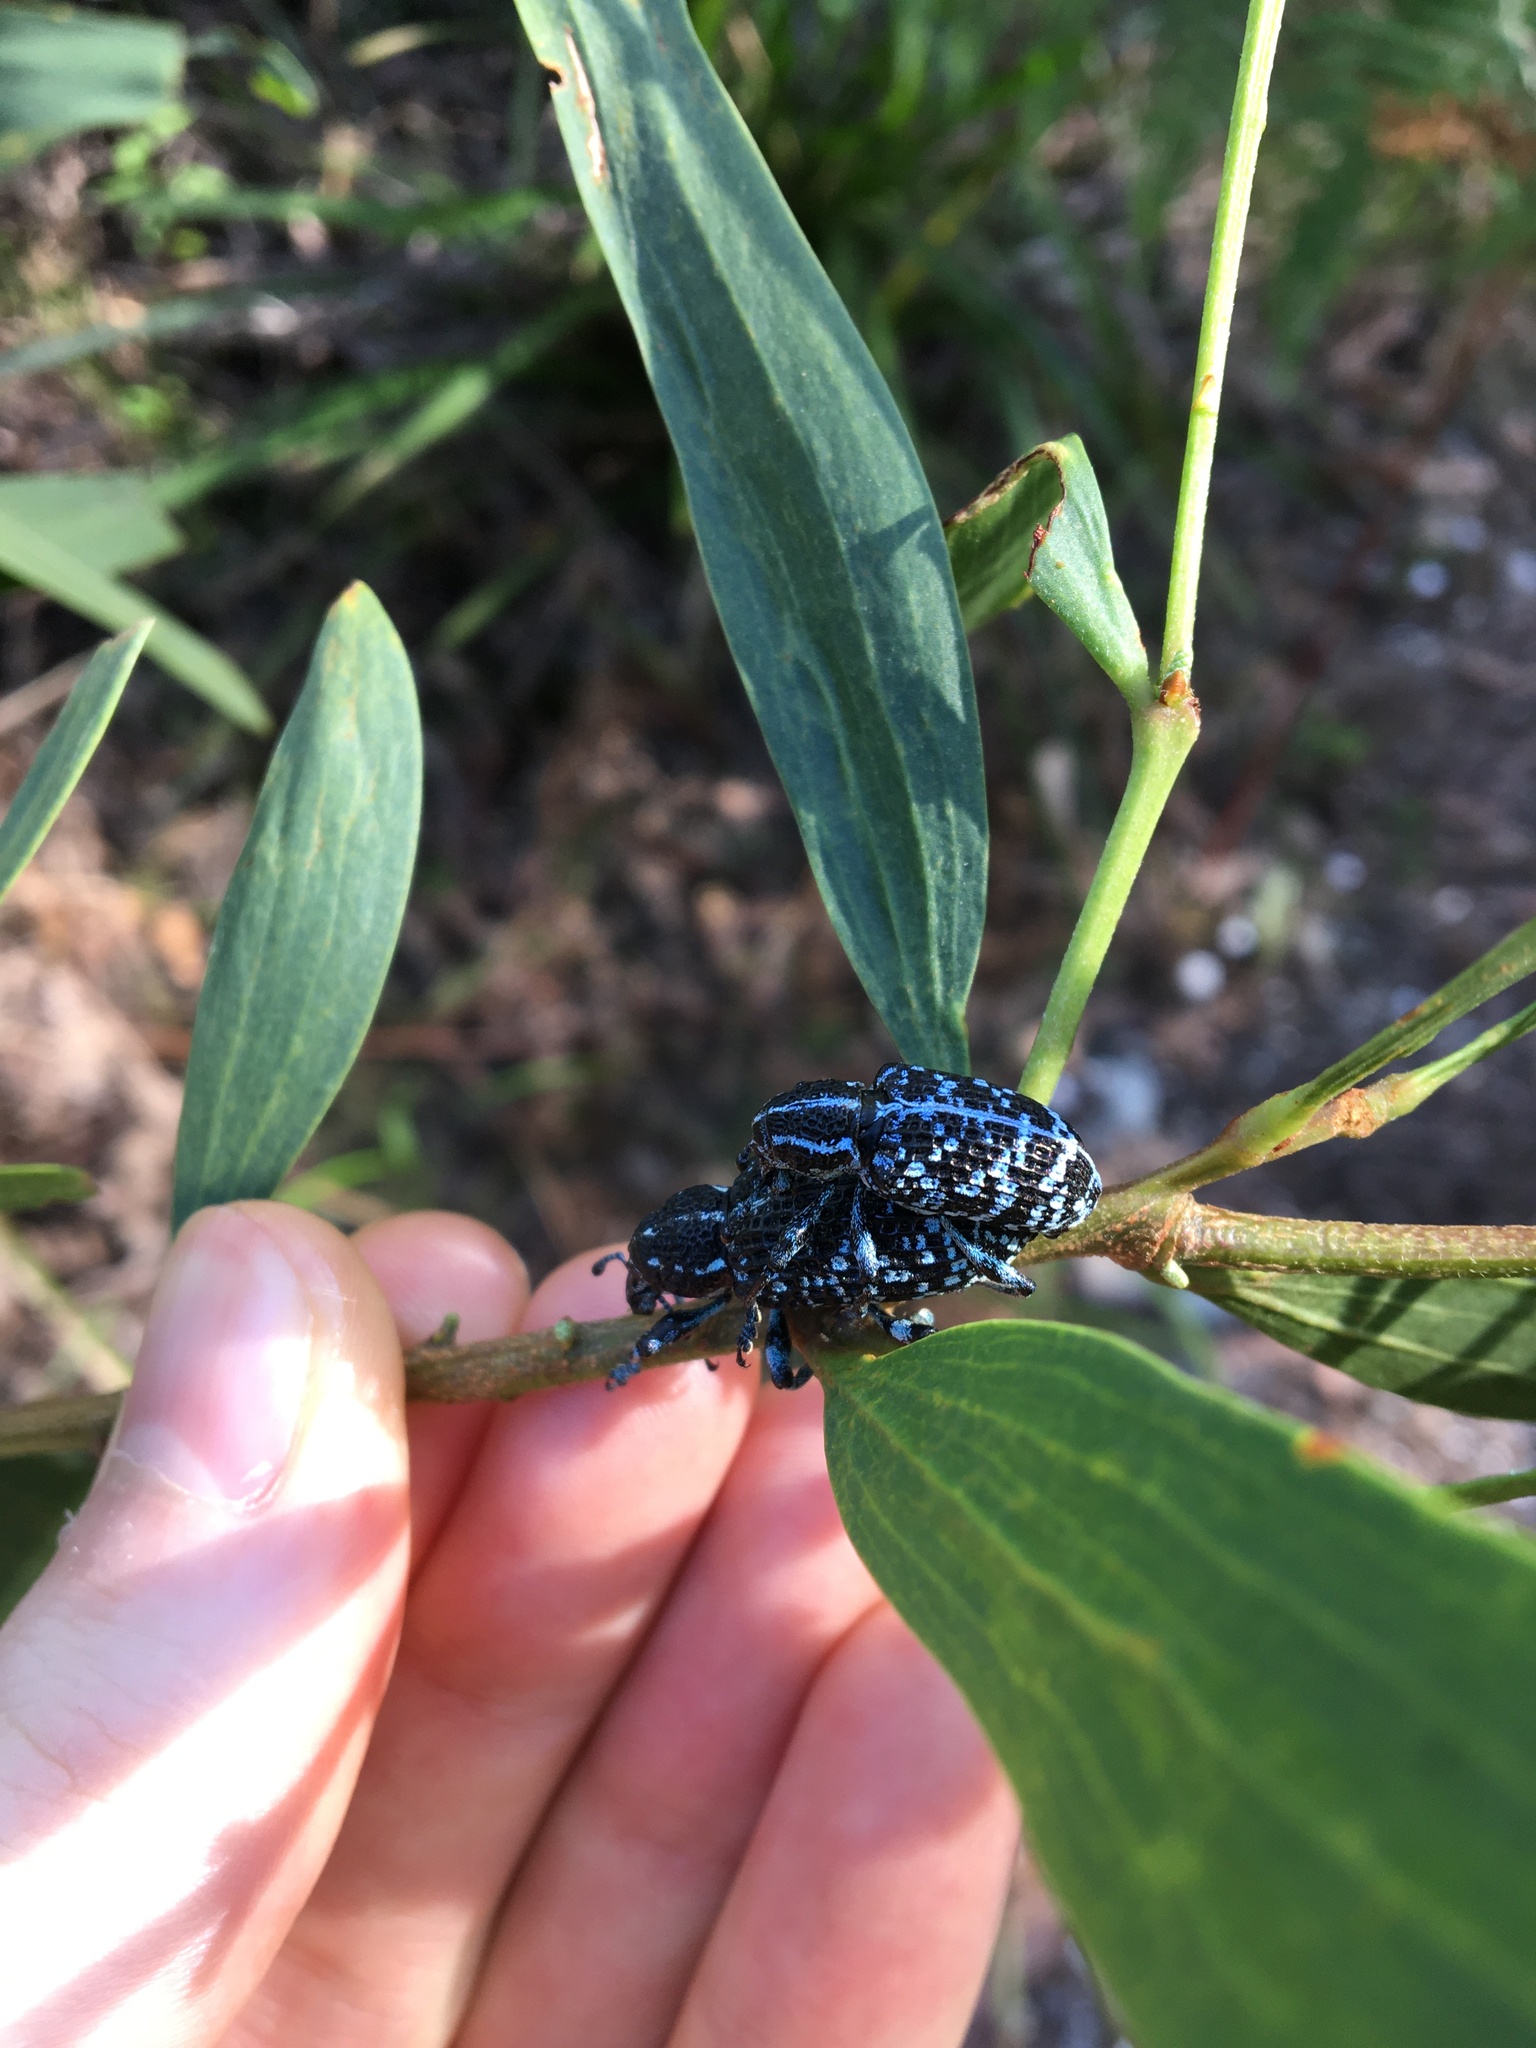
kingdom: Animalia
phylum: Arthropoda
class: Insecta
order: Coleoptera
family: Curculionidae
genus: Chrysolopus
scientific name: Chrysolopus spectabilis
